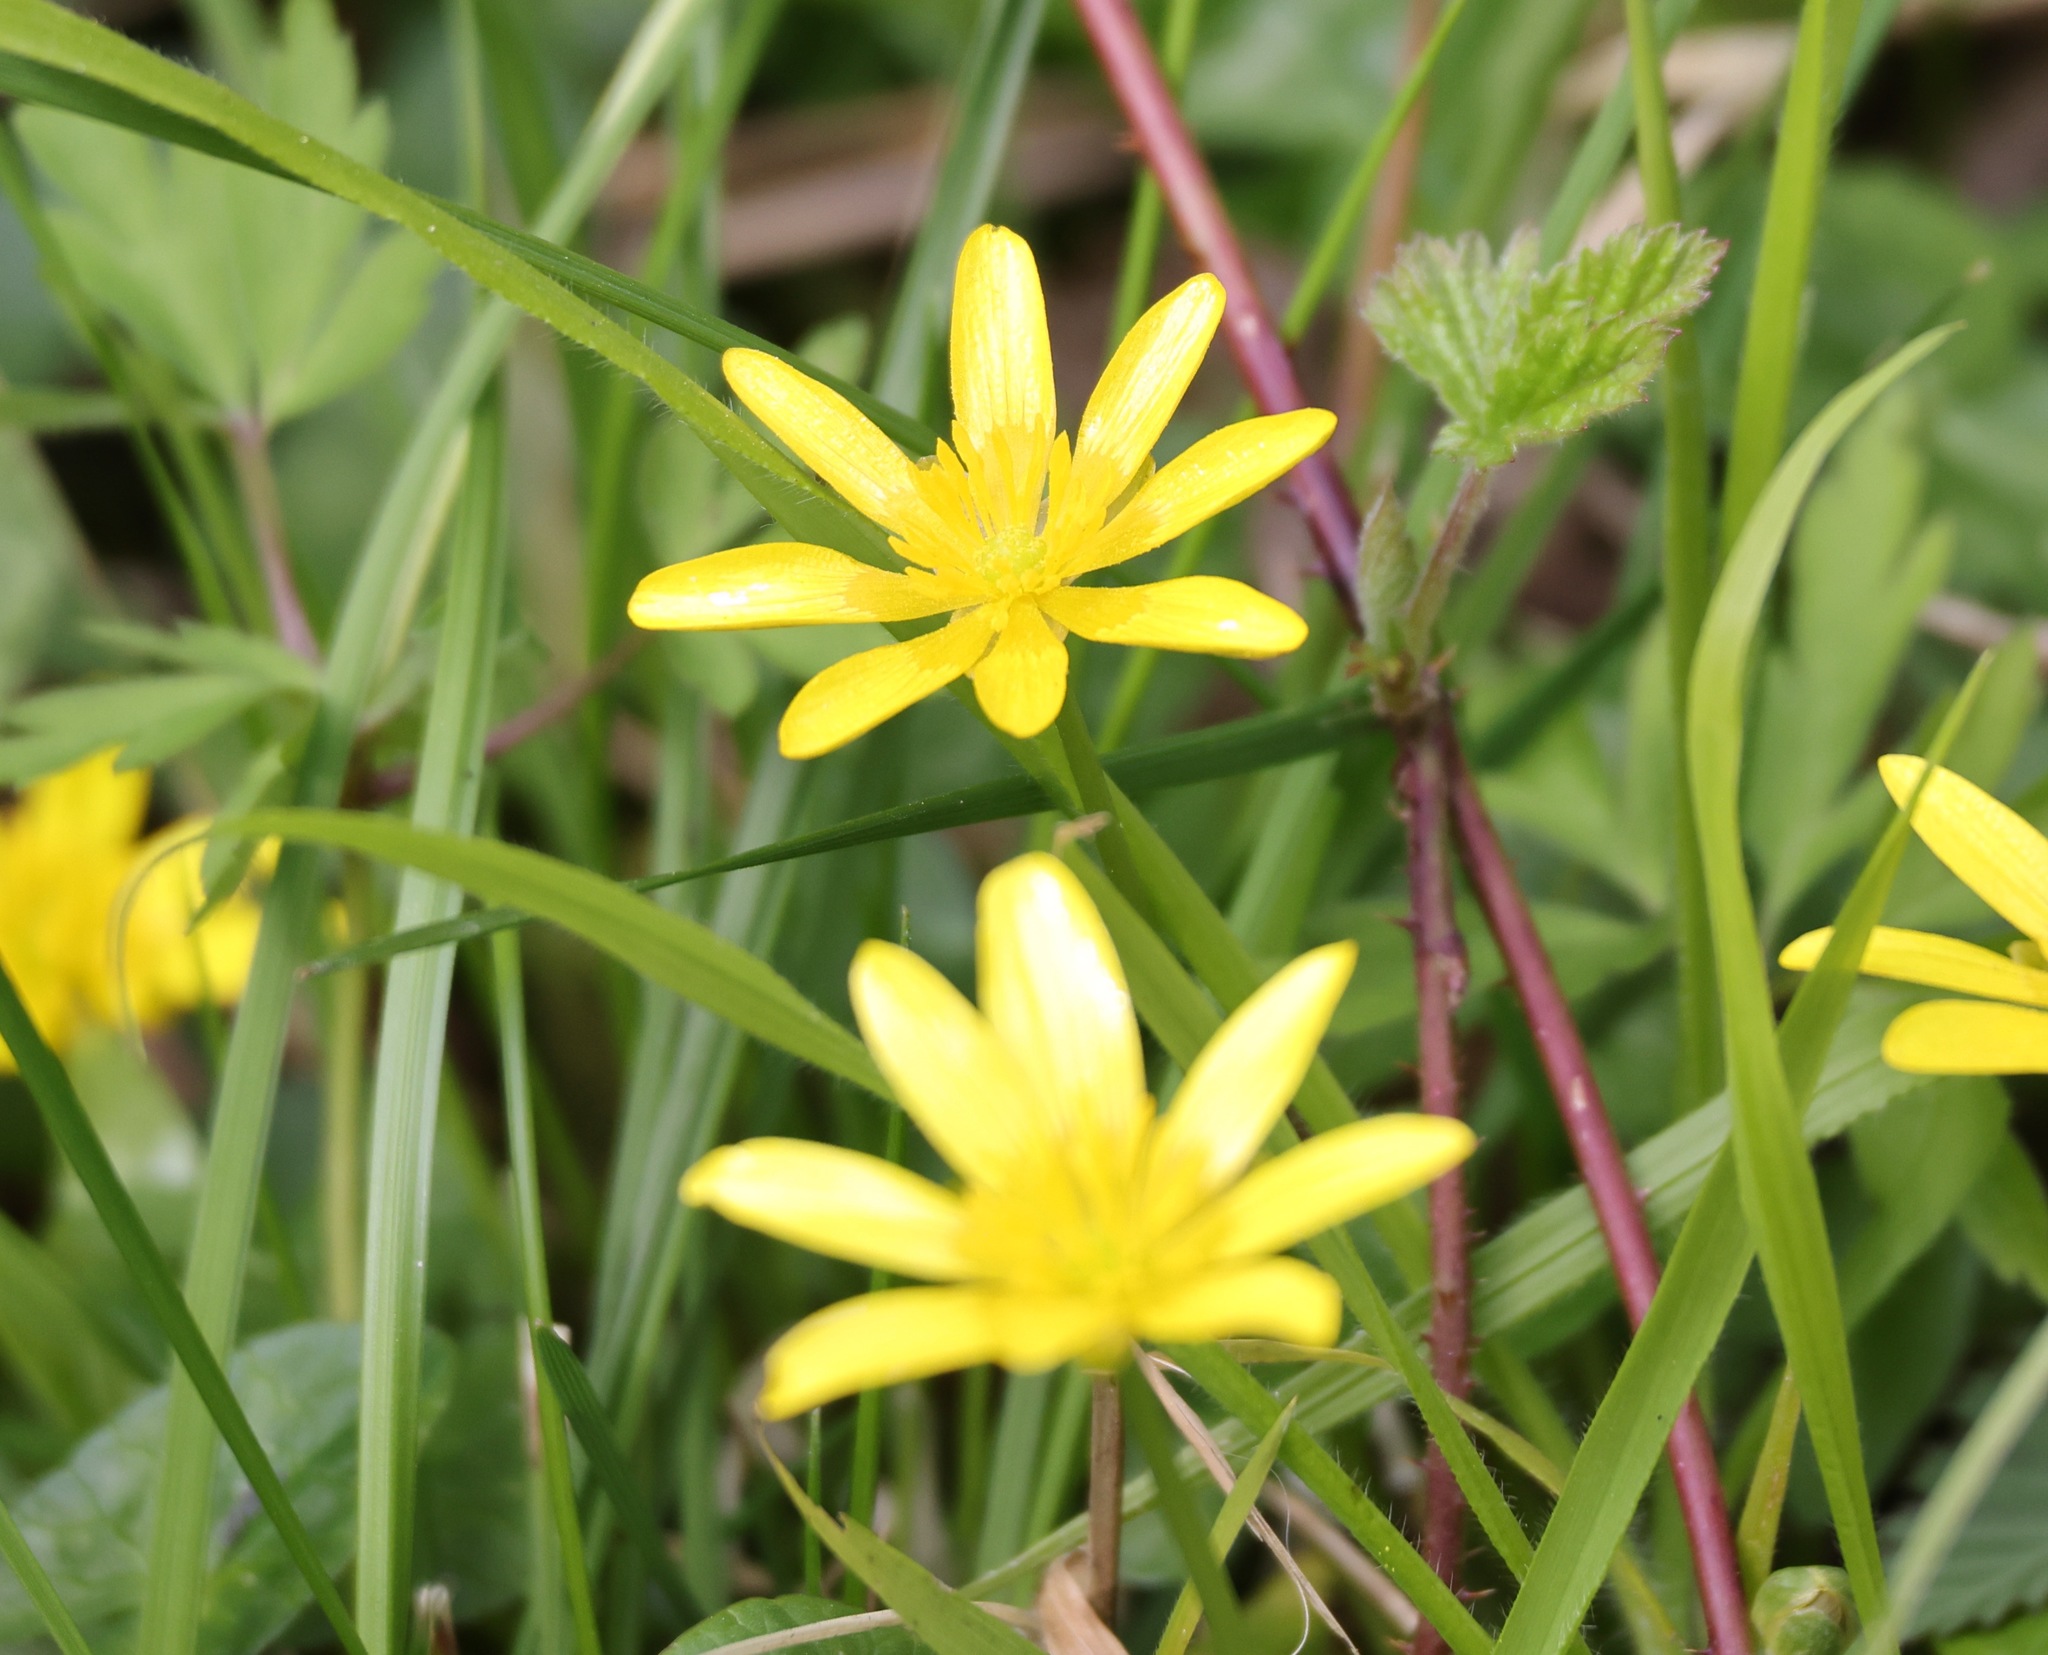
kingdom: Plantae
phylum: Tracheophyta
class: Magnoliopsida
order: Ranunculales
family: Ranunculaceae
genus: Ficaria
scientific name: Ficaria verna
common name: Lesser celandine
